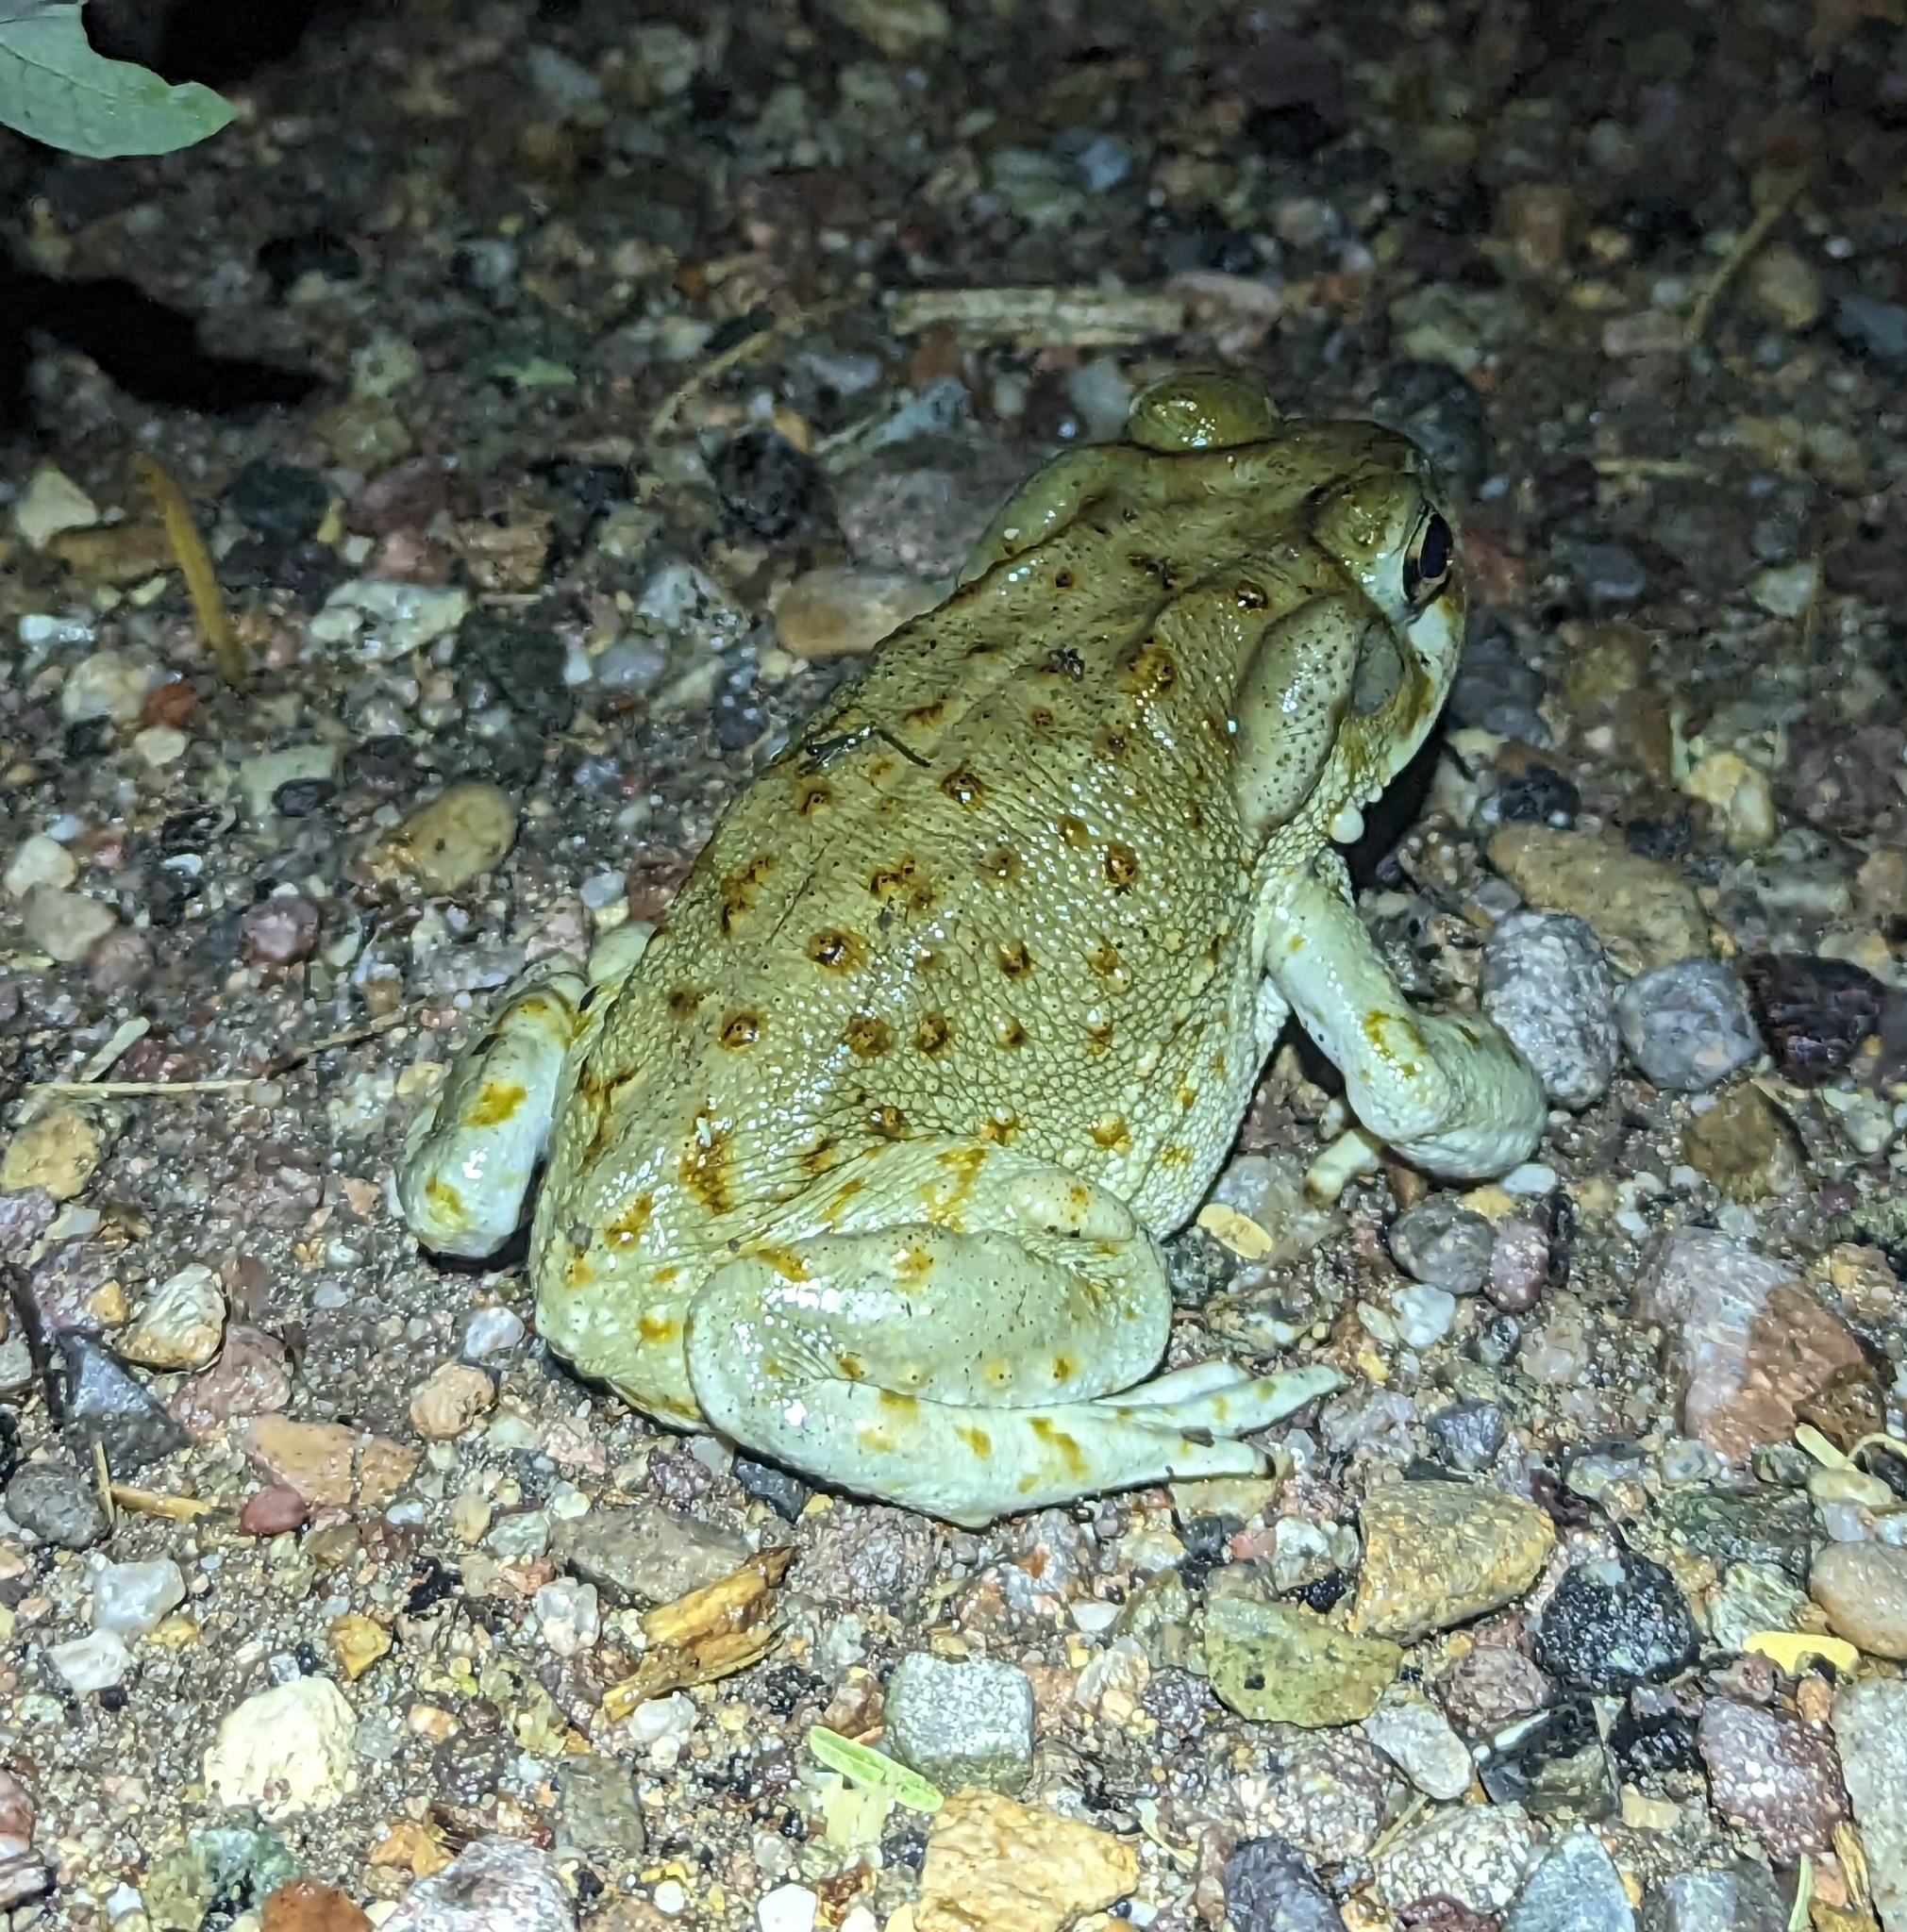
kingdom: Animalia
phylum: Chordata
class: Amphibia
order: Anura
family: Bufonidae
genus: Incilius
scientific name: Incilius alvarius
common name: Sonoran desert toad
